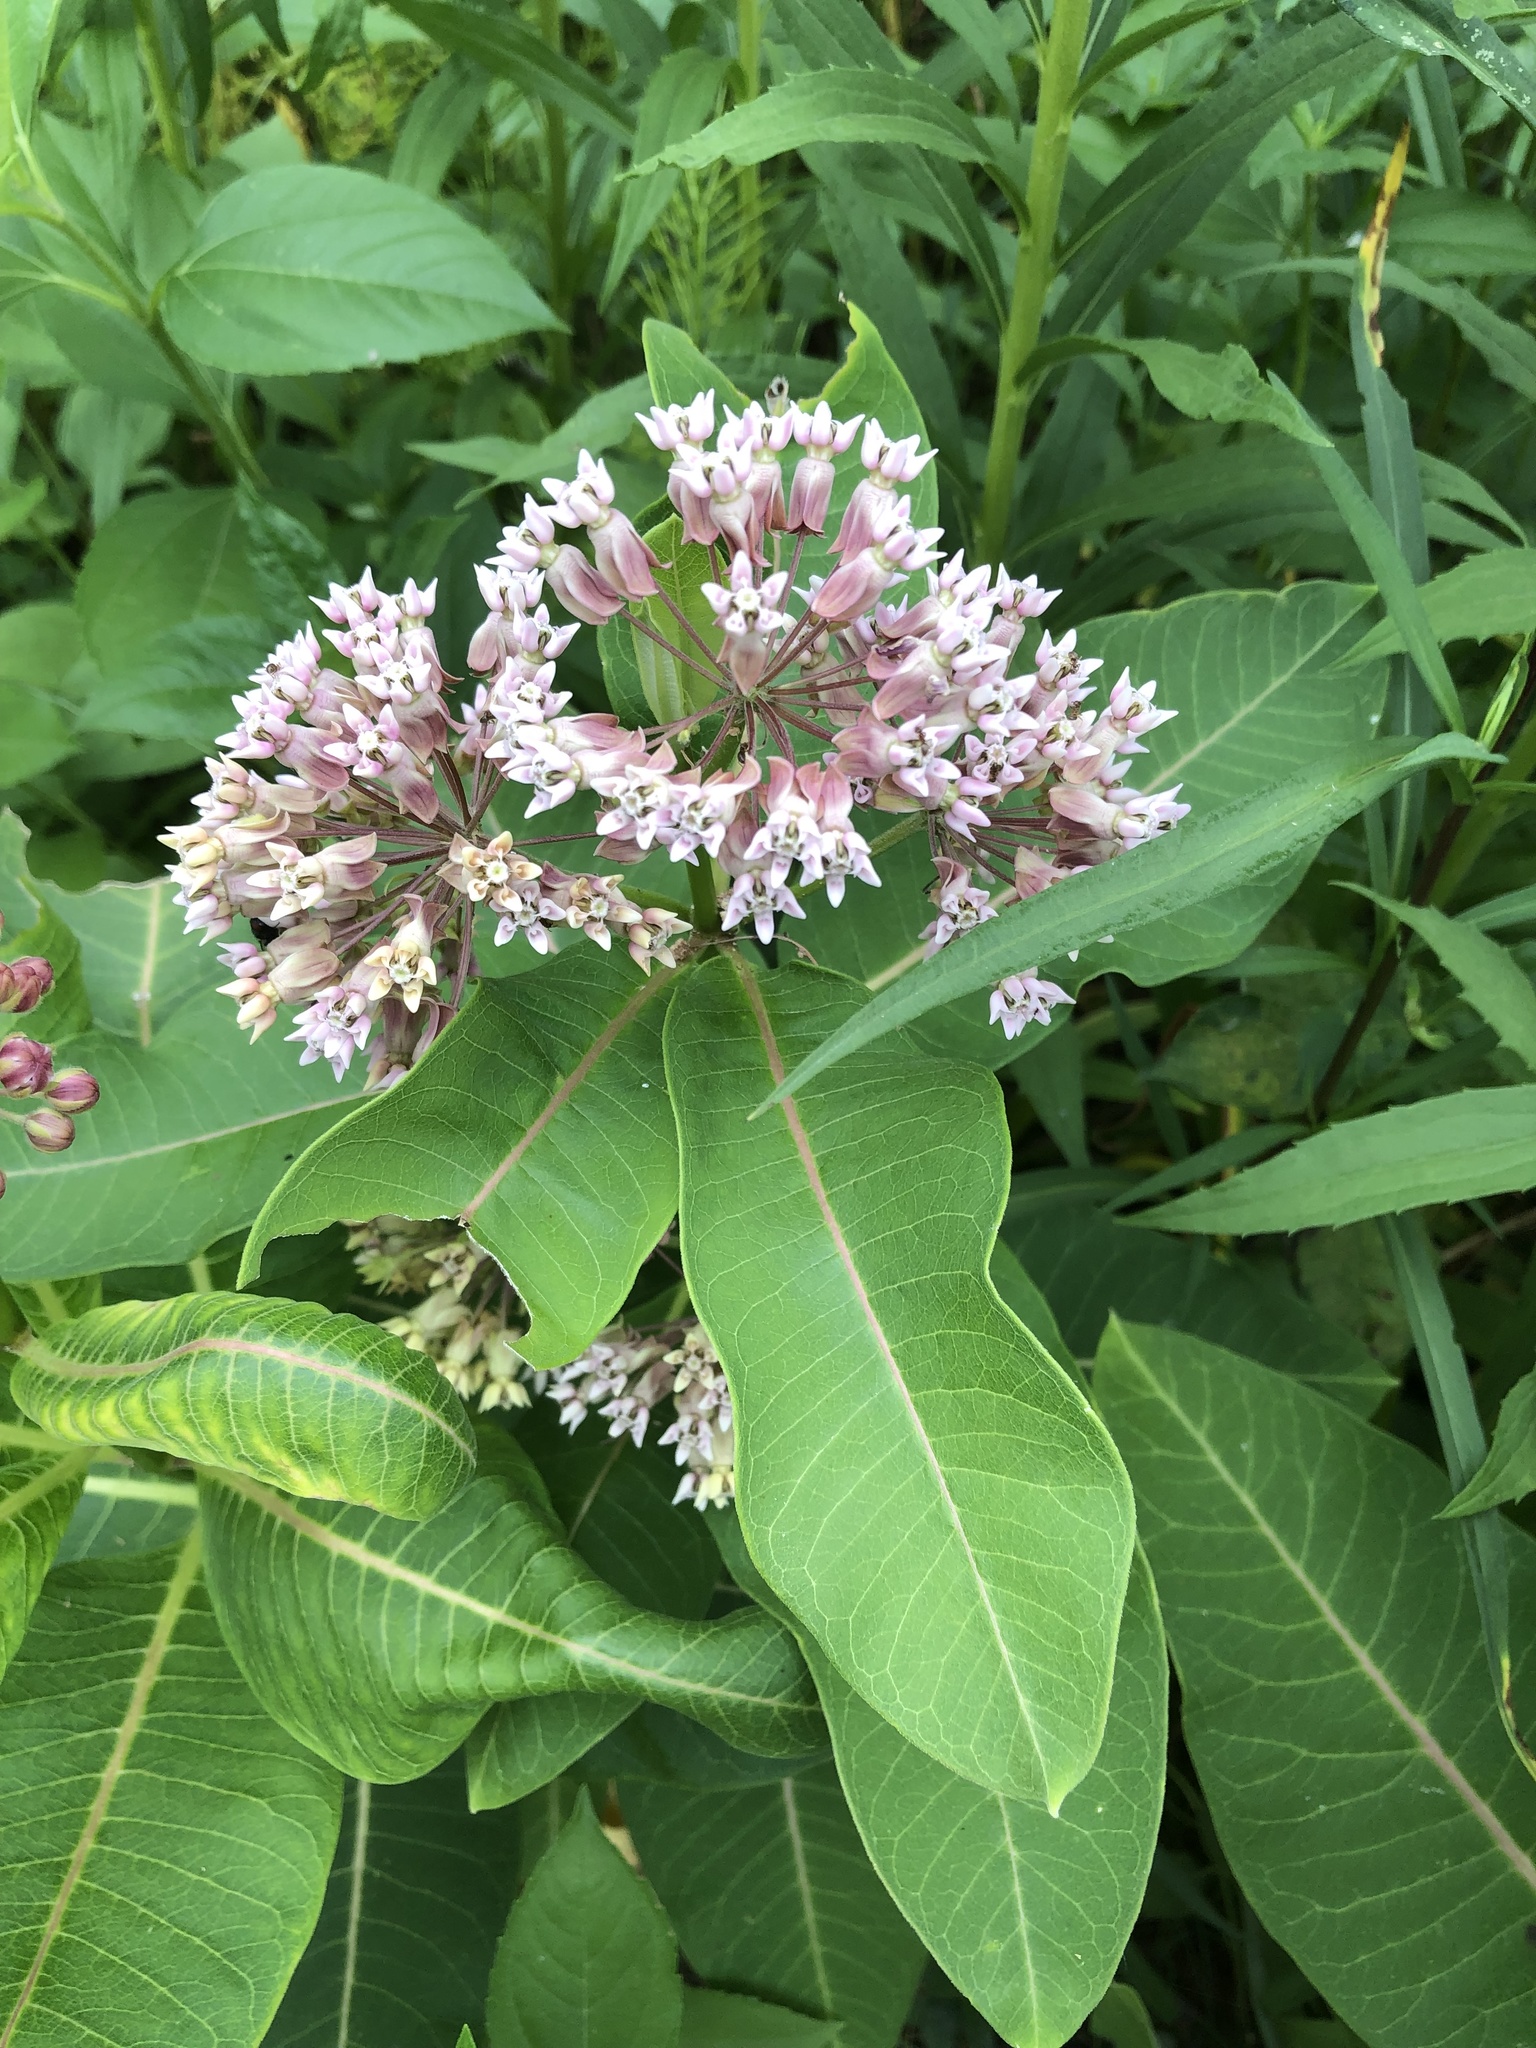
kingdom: Plantae
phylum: Tracheophyta
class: Magnoliopsida
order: Gentianales
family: Apocynaceae
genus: Asclepias
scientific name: Asclepias syriaca
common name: Common milkweed
